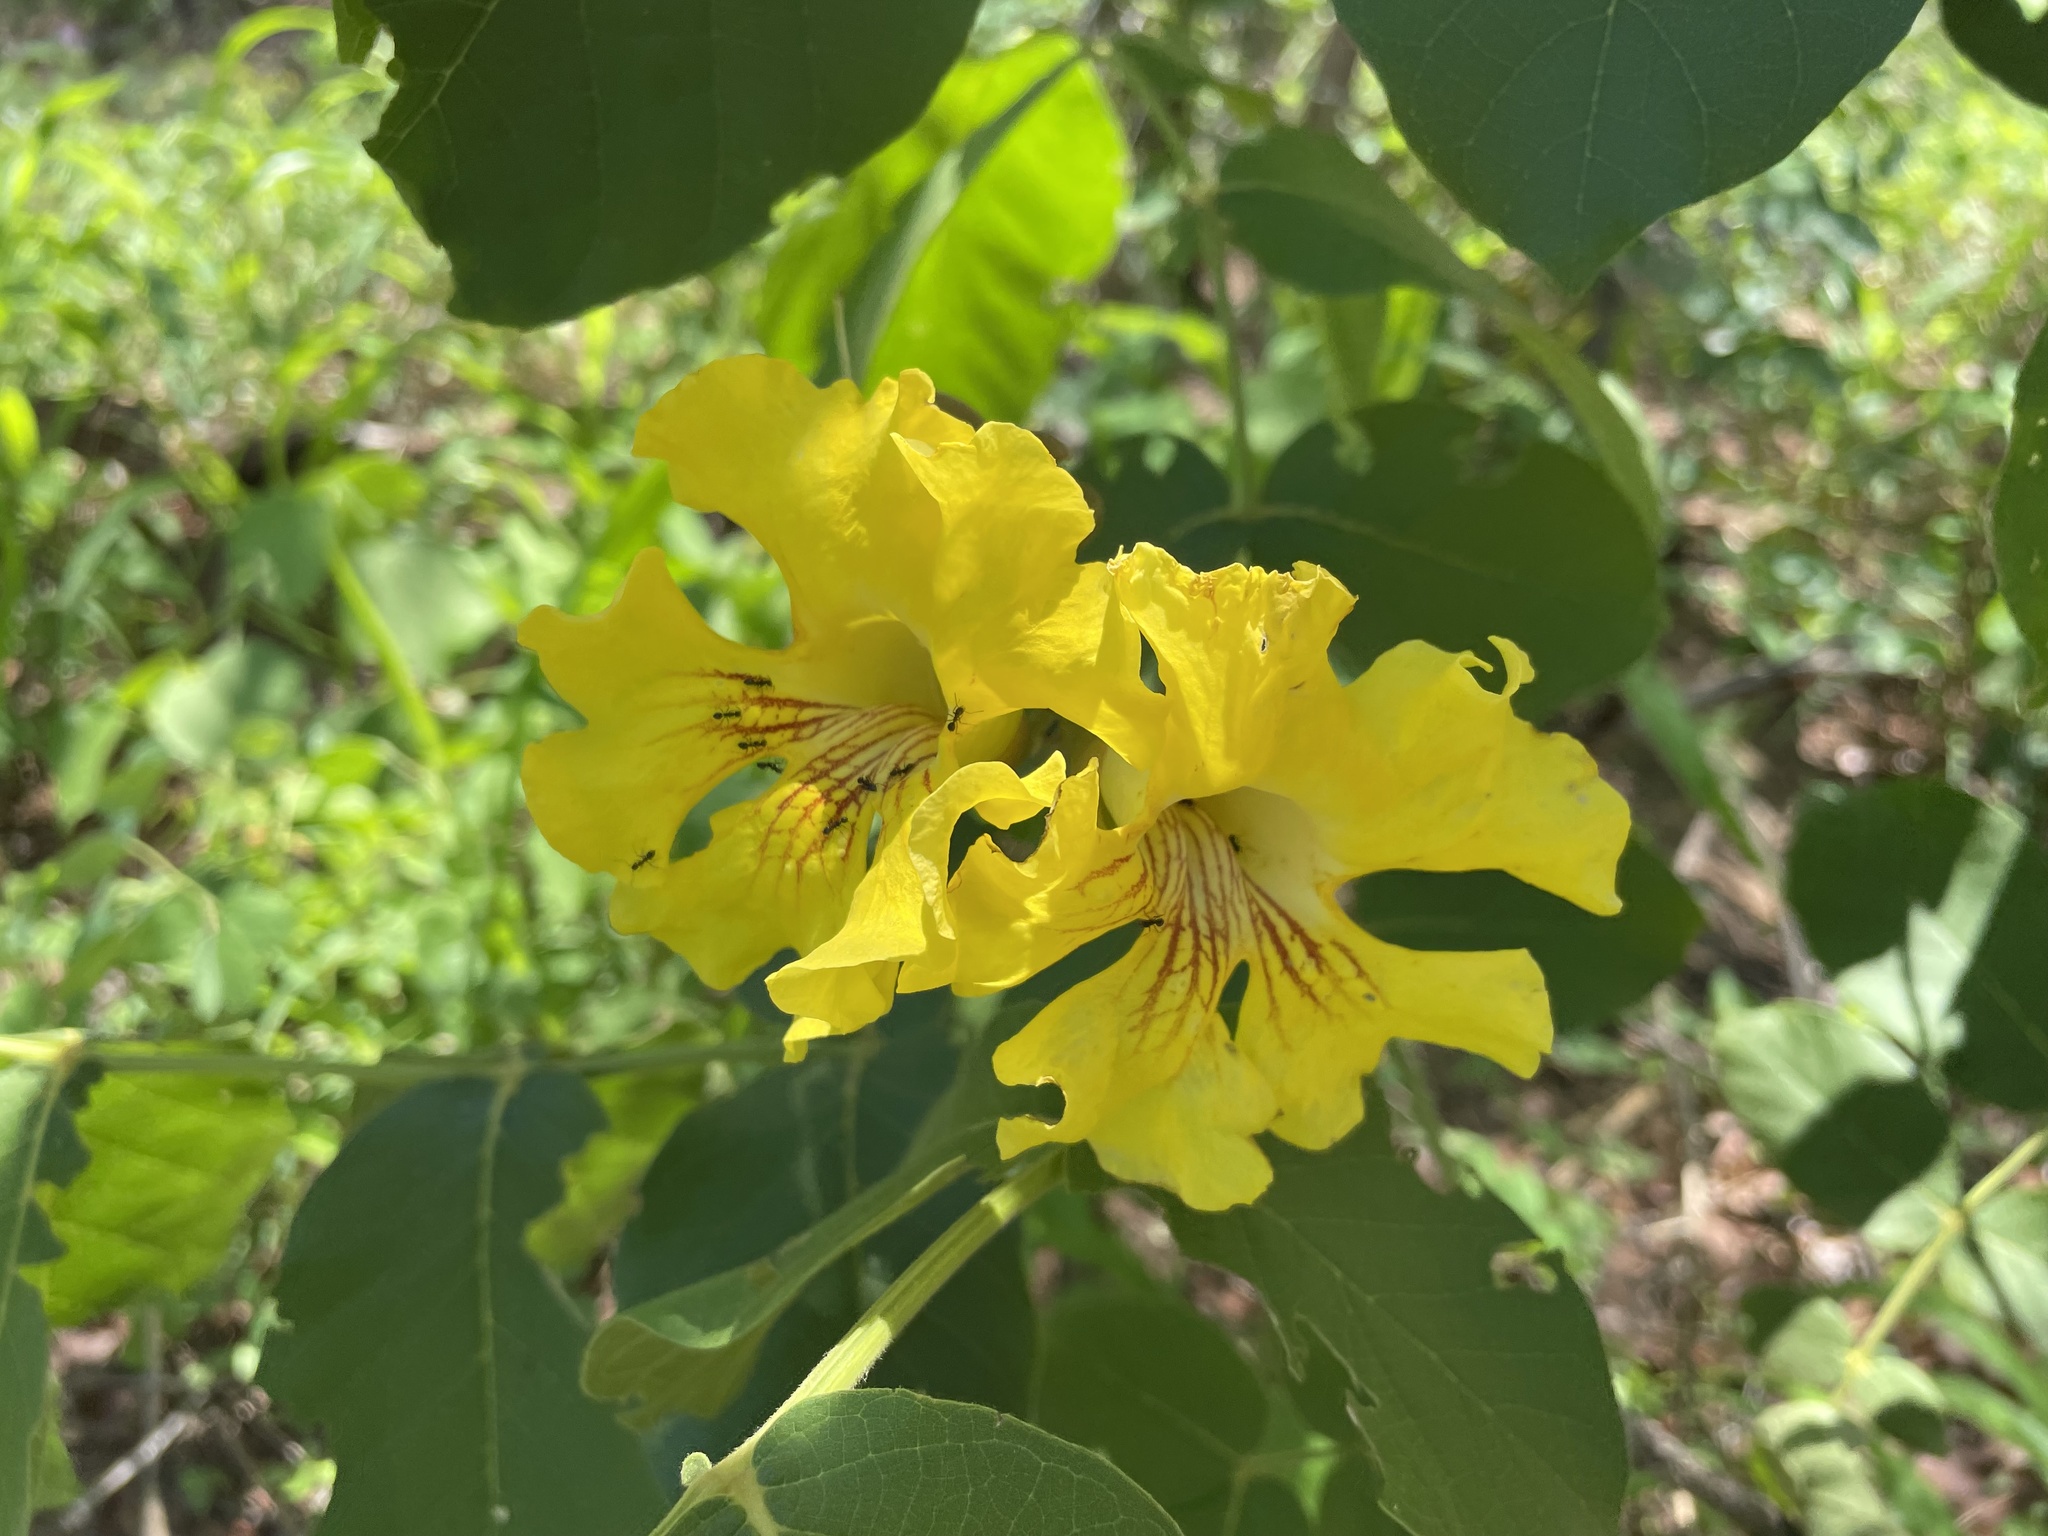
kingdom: Plantae
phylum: Tracheophyta
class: Magnoliopsida
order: Lamiales
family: Bignoniaceae
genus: Markhamia
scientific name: Markhamia obtusifolia
